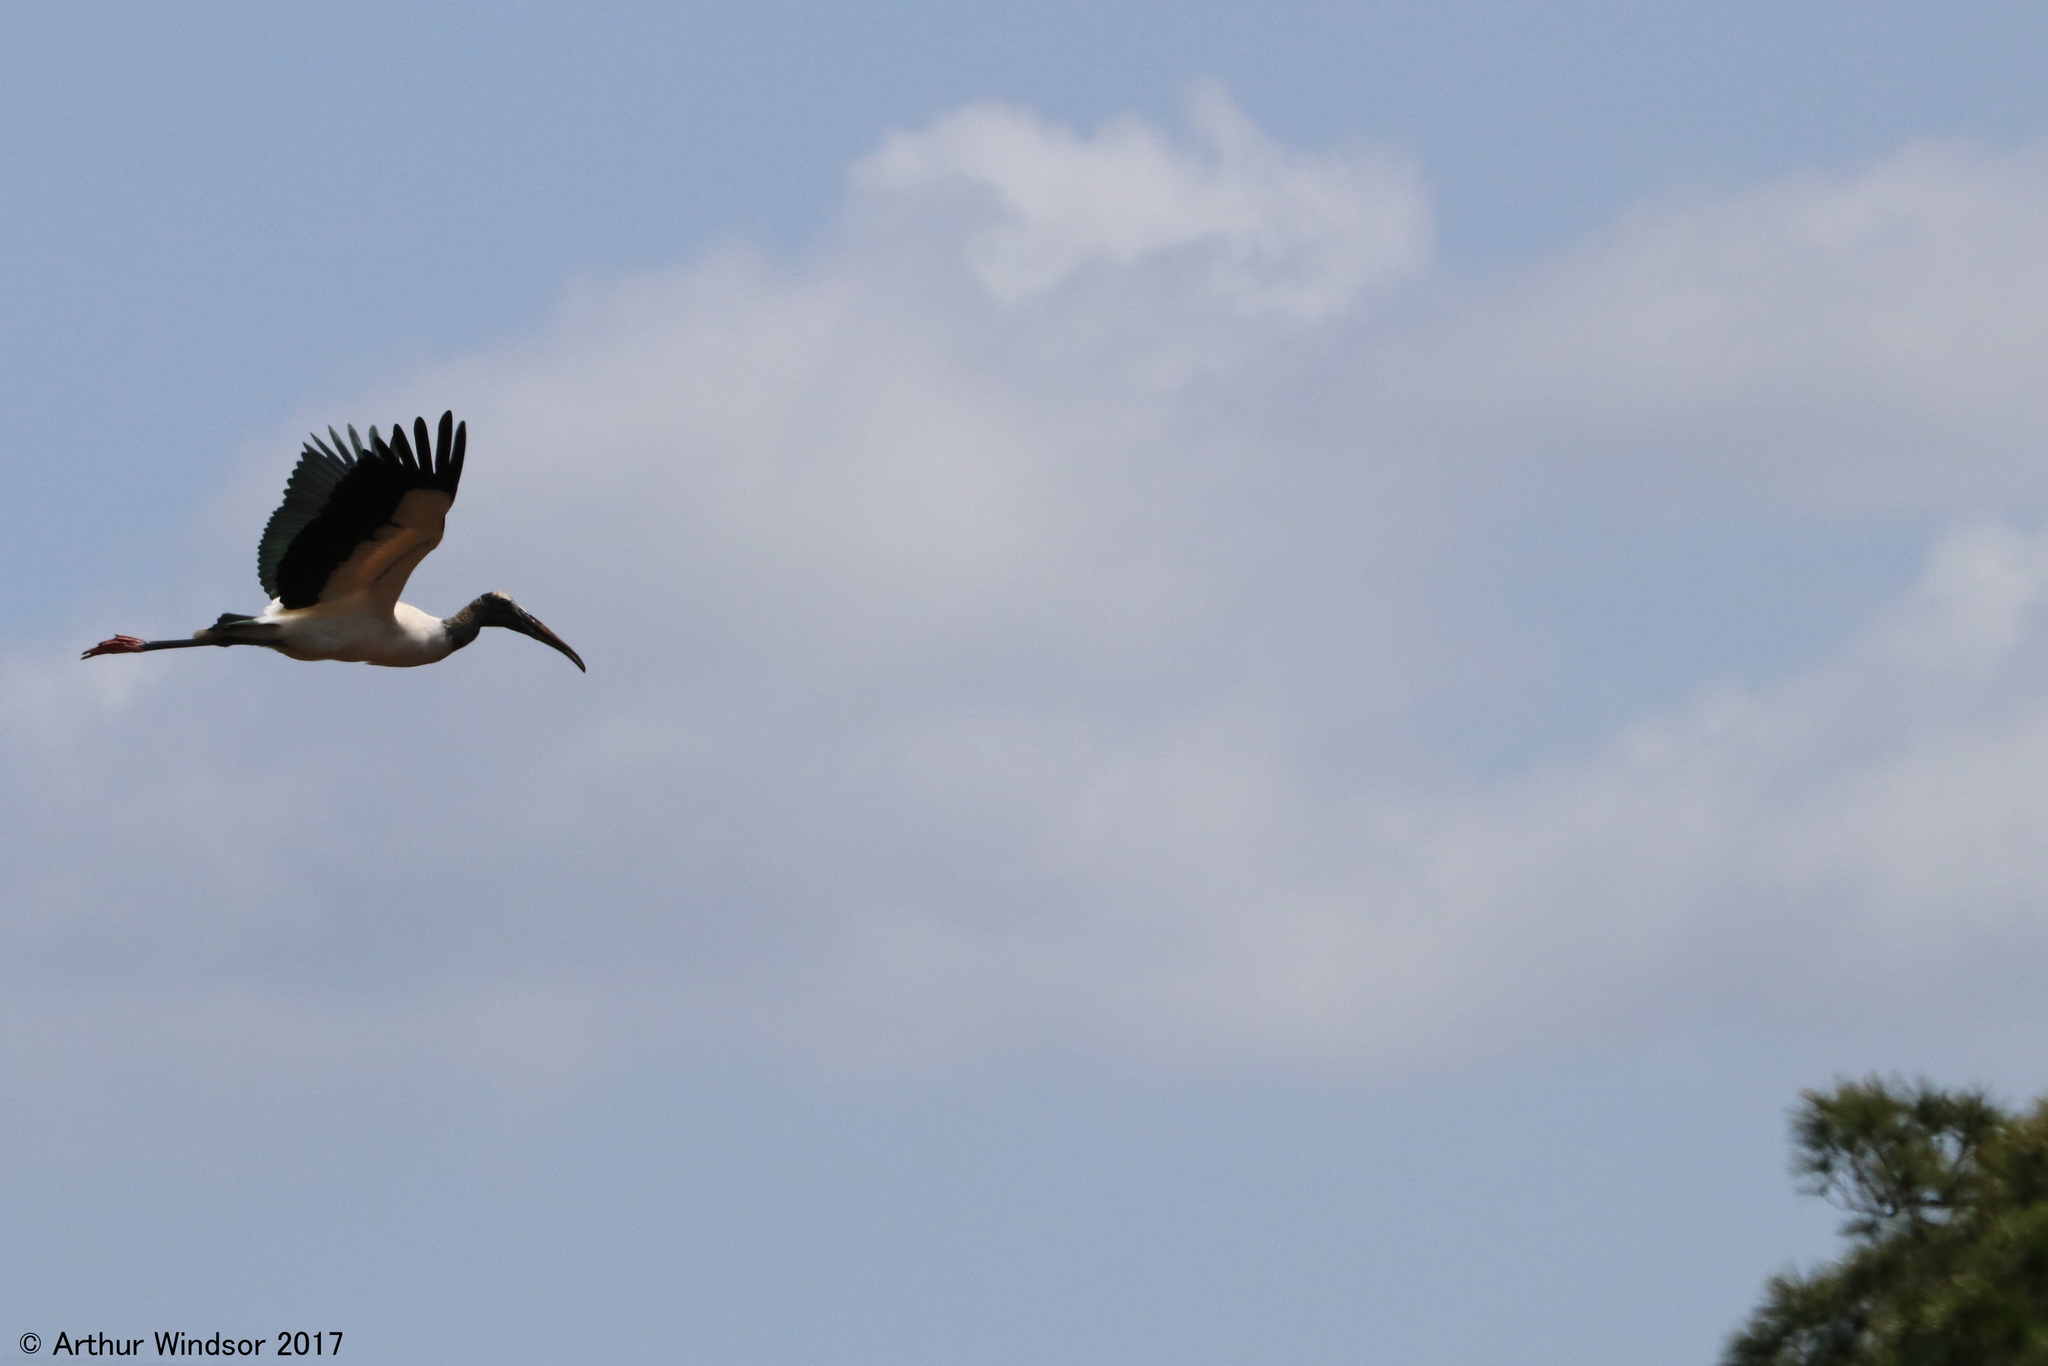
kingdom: Animalia
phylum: Chordata
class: Aves
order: Ciconiiformes
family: Ciconiidae
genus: Mycteria
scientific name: Mycteria americana
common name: Wood stork
